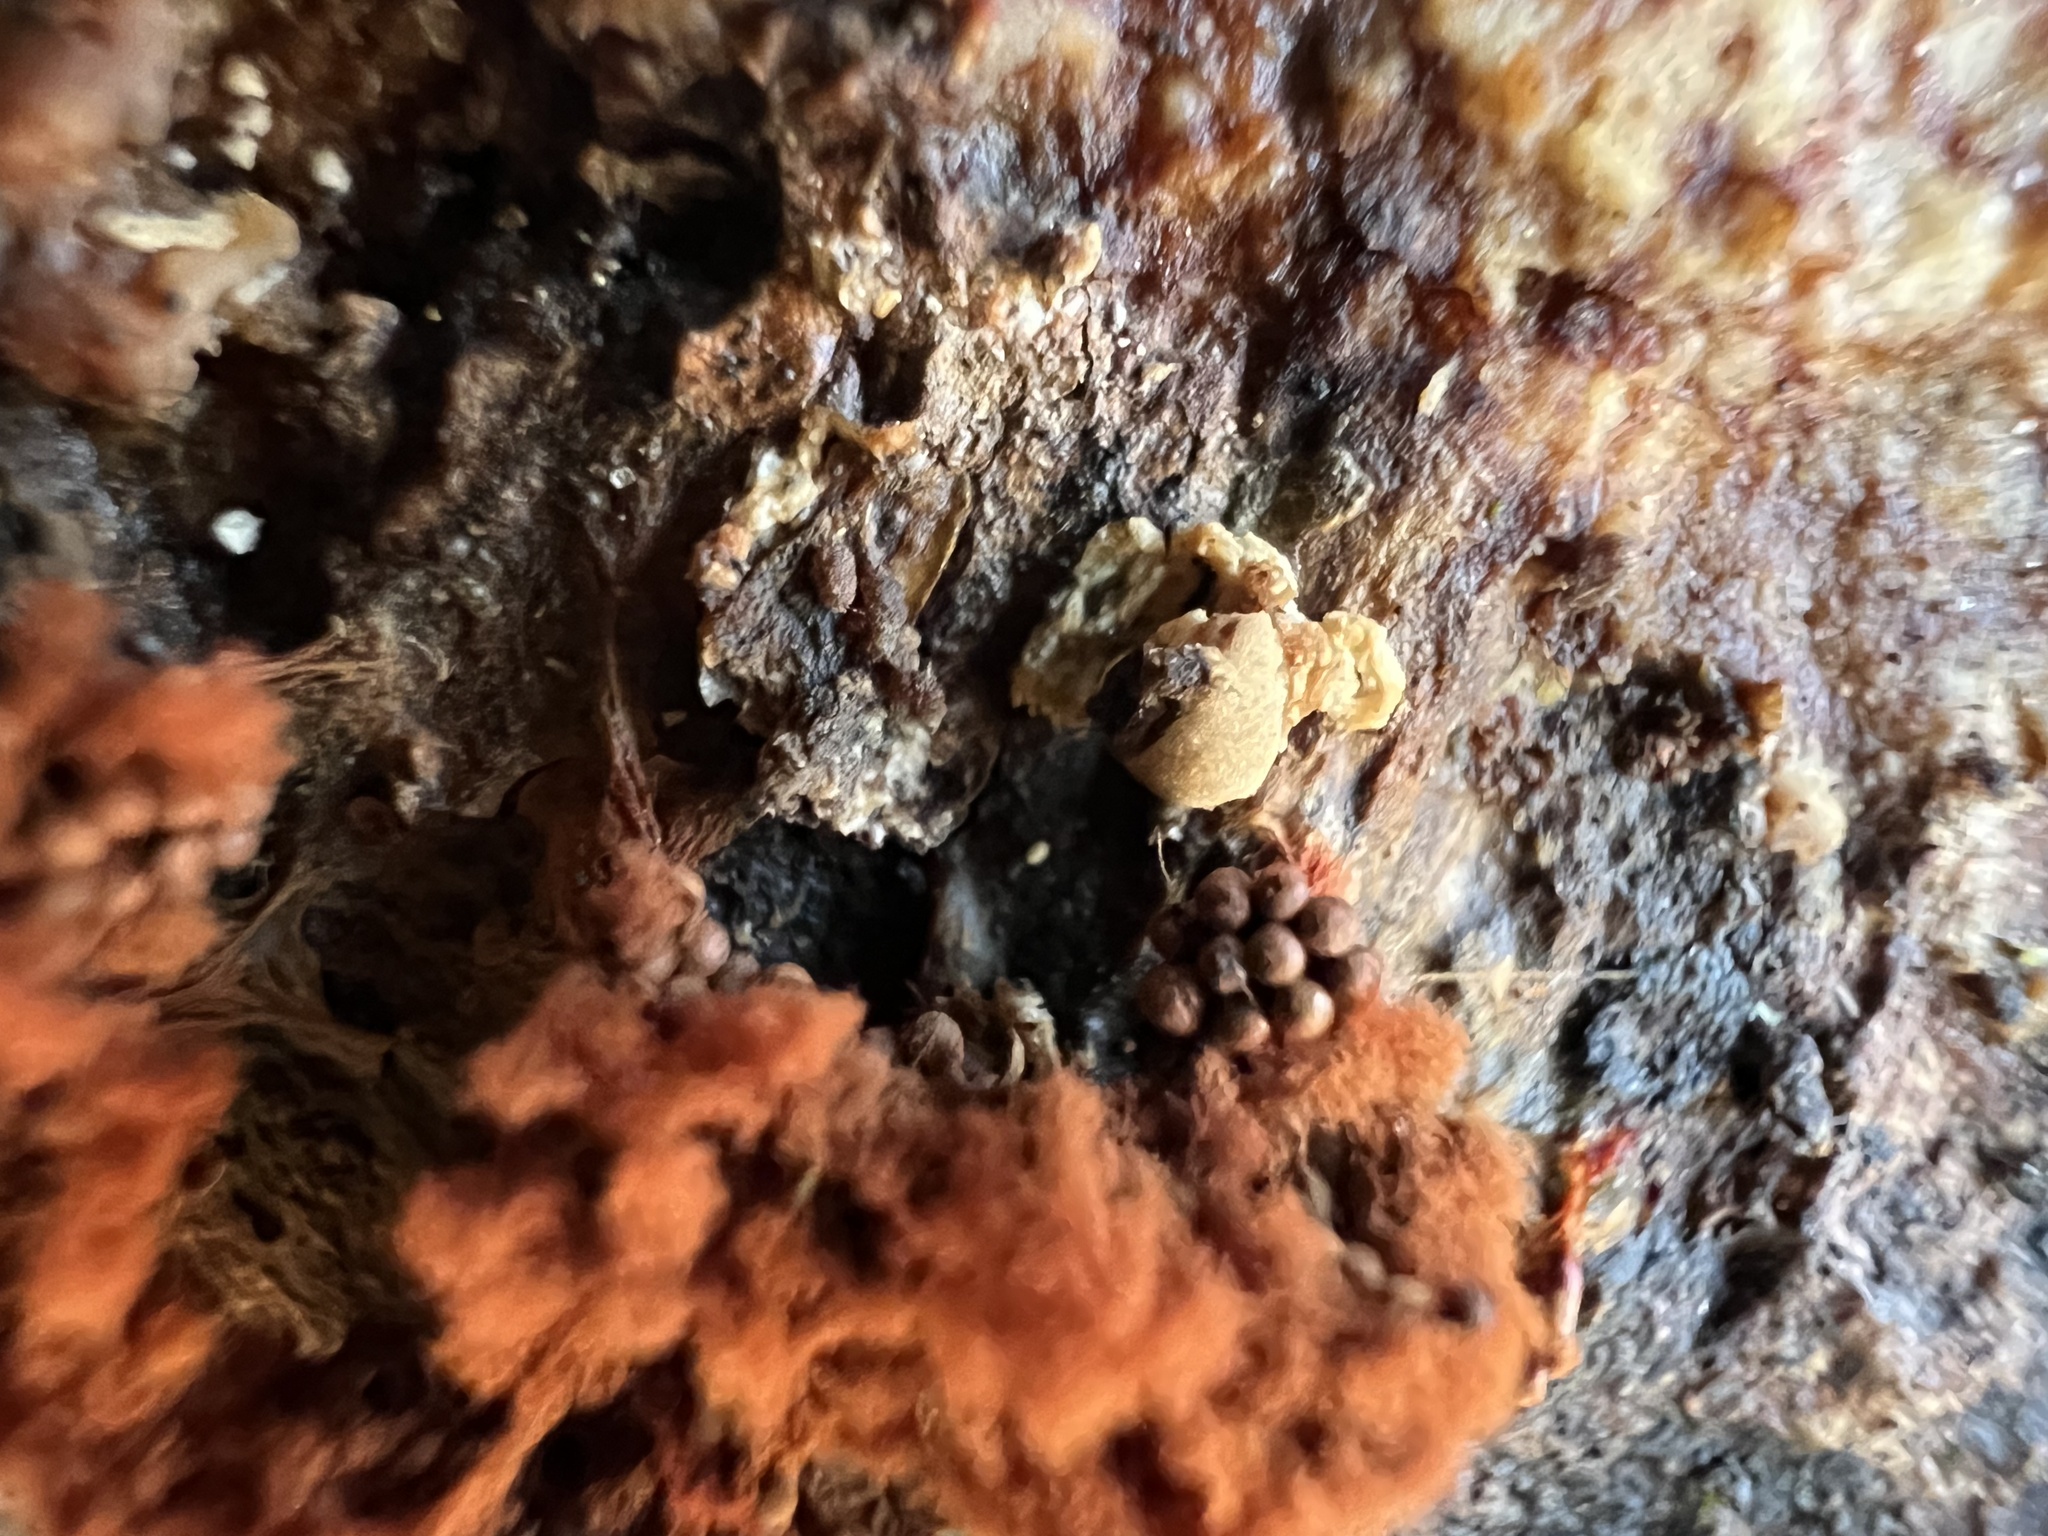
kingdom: Protozoa
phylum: Mycetozoa
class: Myxomycetes
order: Trichiales
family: Trichiaceae
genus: Metatrichia
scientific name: Metatrichia vesparia
